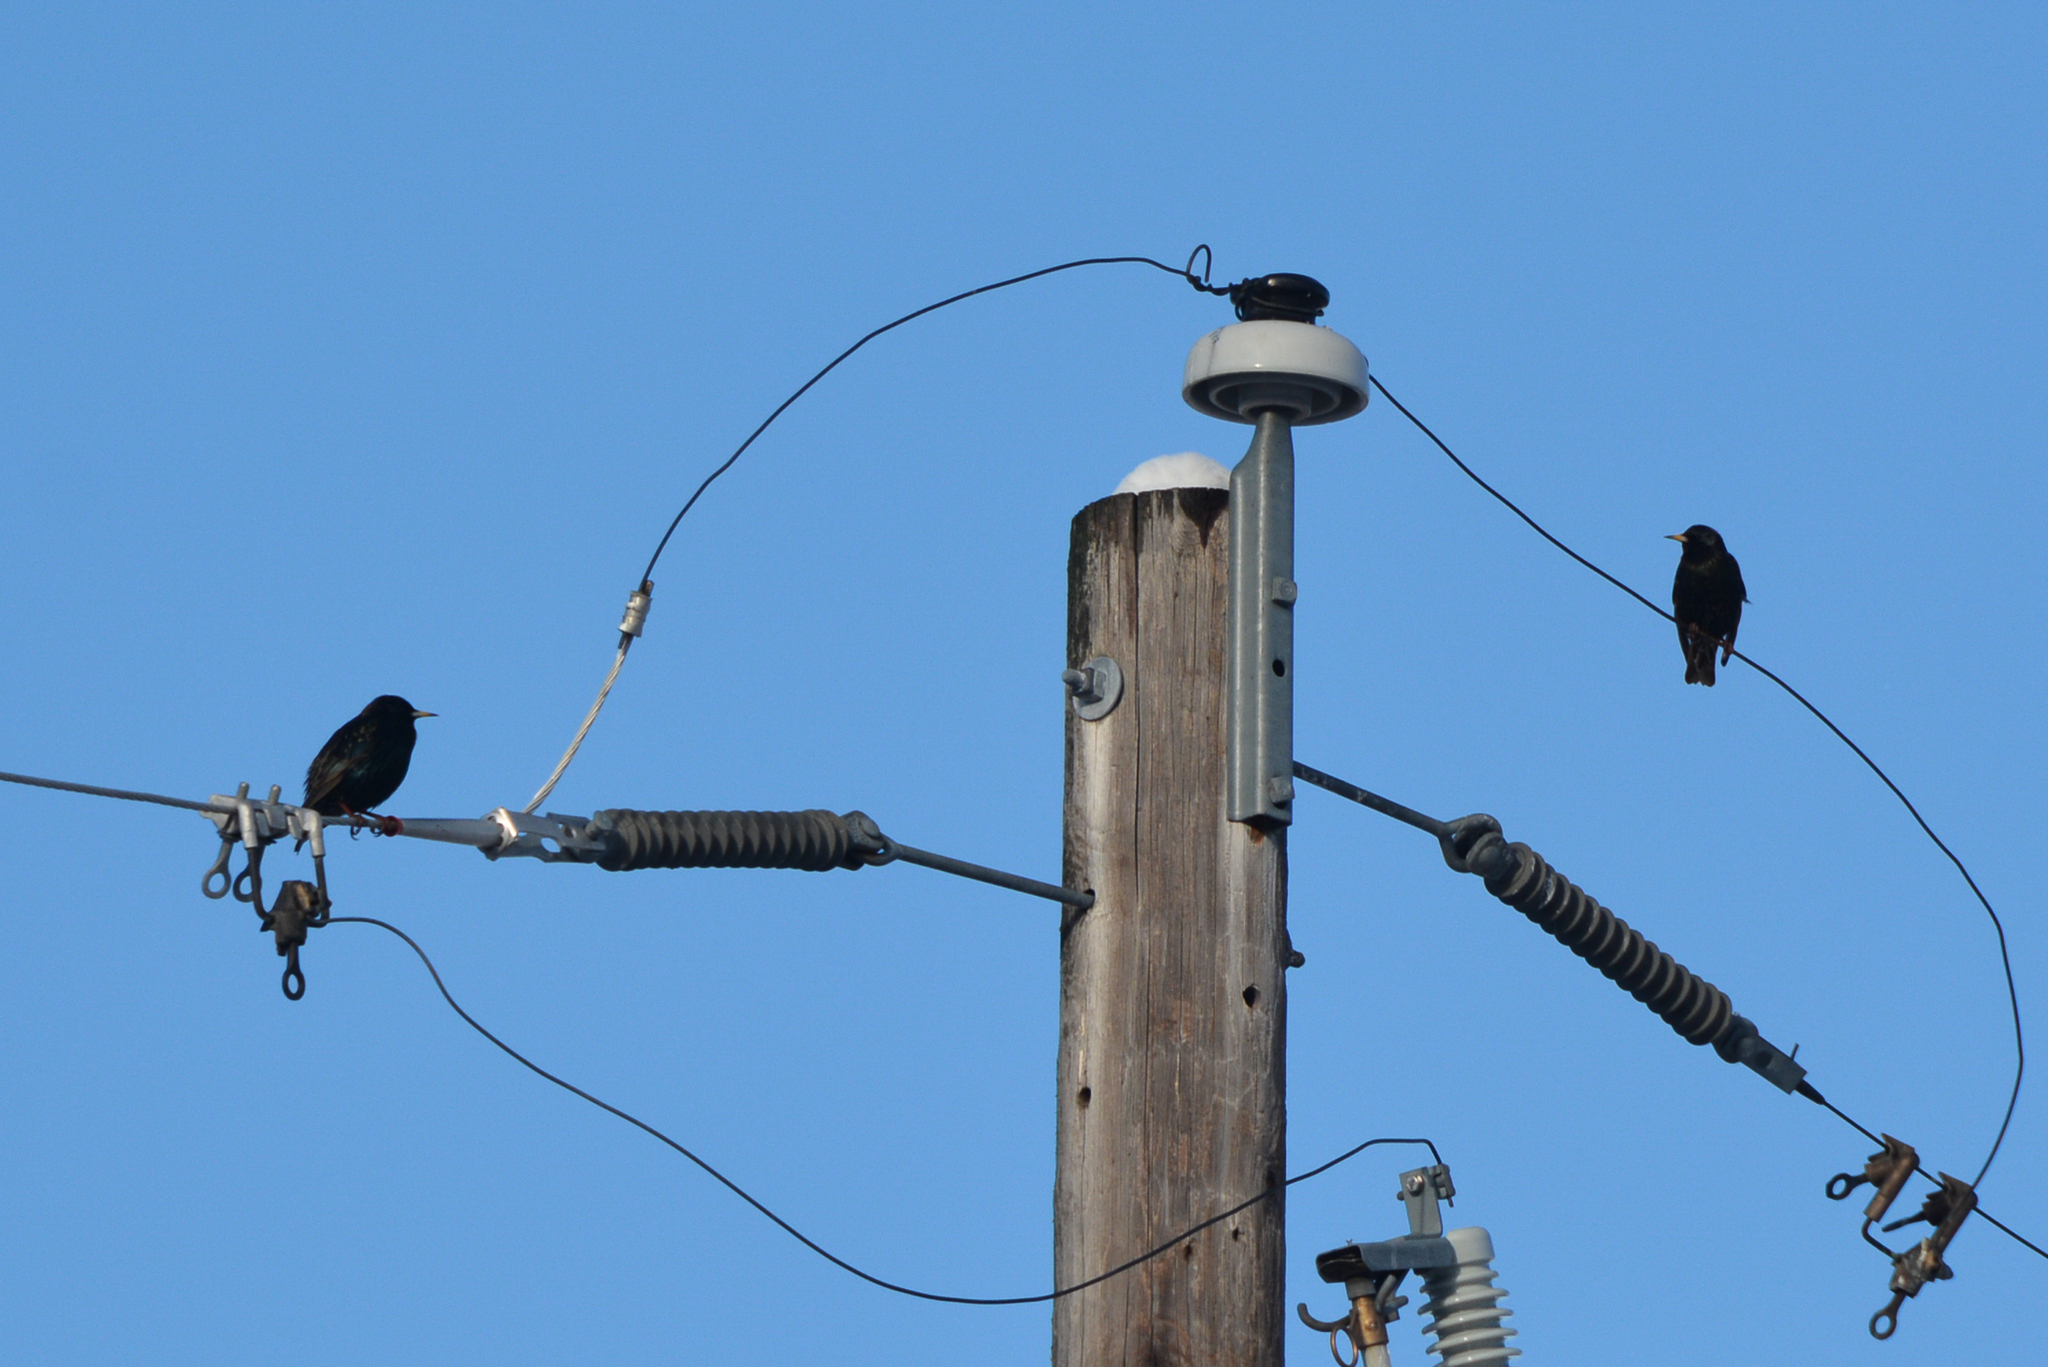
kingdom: Animalia
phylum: Chordata
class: Aves
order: Passeriformes
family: Sturnidae
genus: Sturnus
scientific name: Sturnus vulgaris
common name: Common starling
